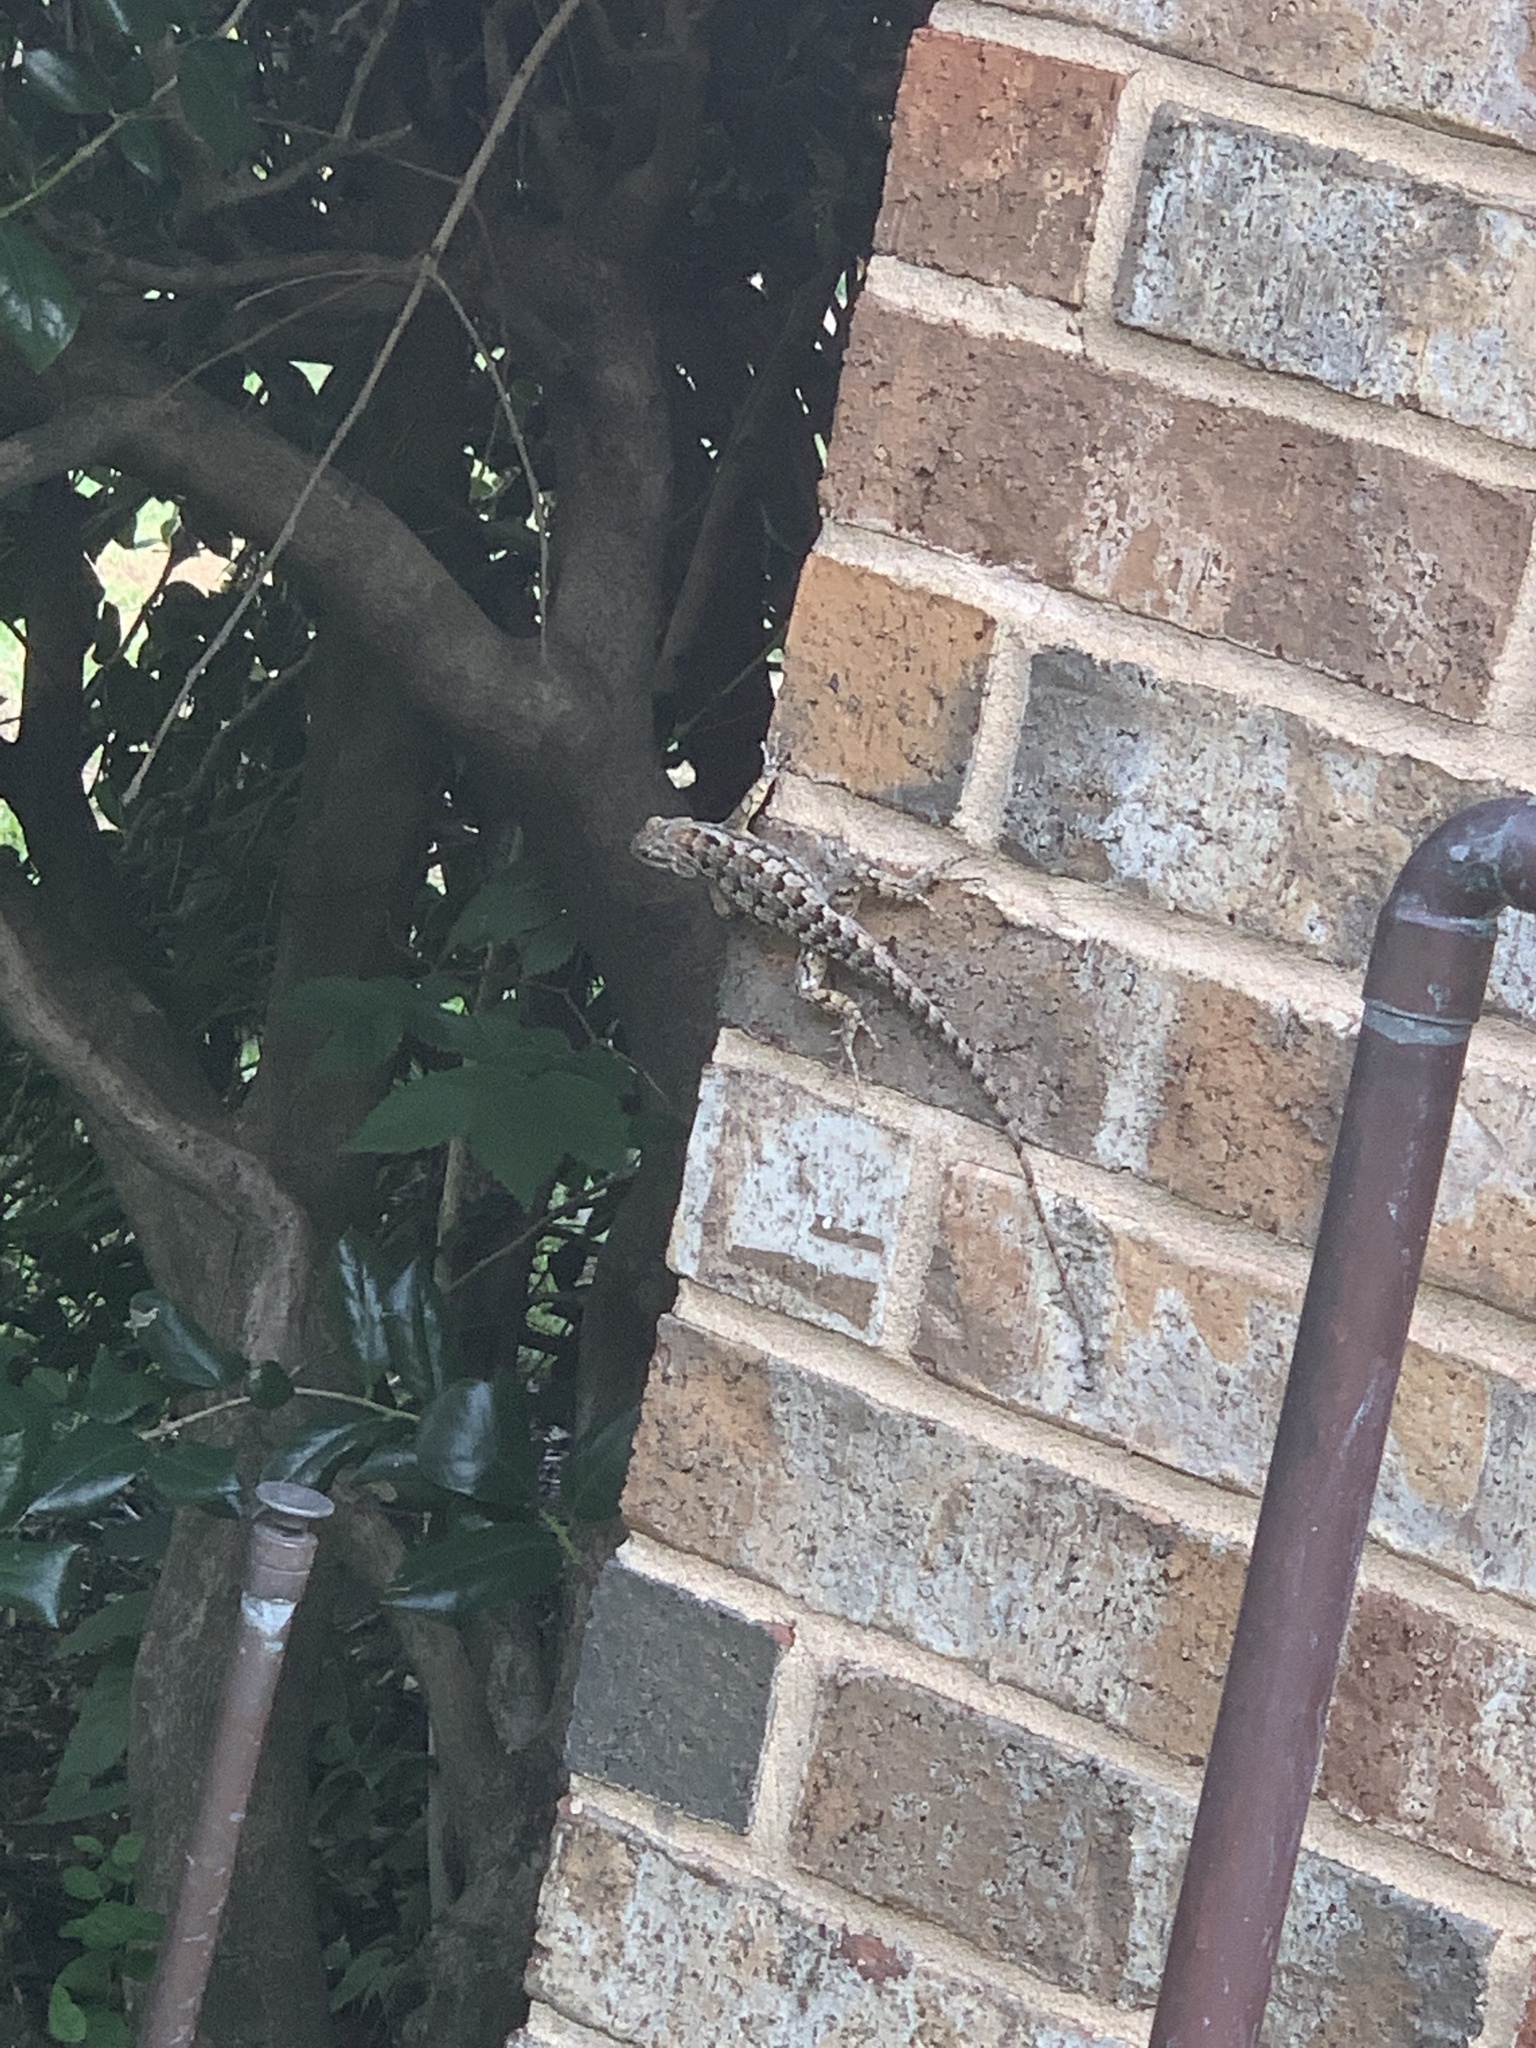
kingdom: Animalia
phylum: Chordata
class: Squamata
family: Phrynosomatidae
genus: Sceloporus
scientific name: Sceloporus olivaceus
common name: Texas spiny lizard
